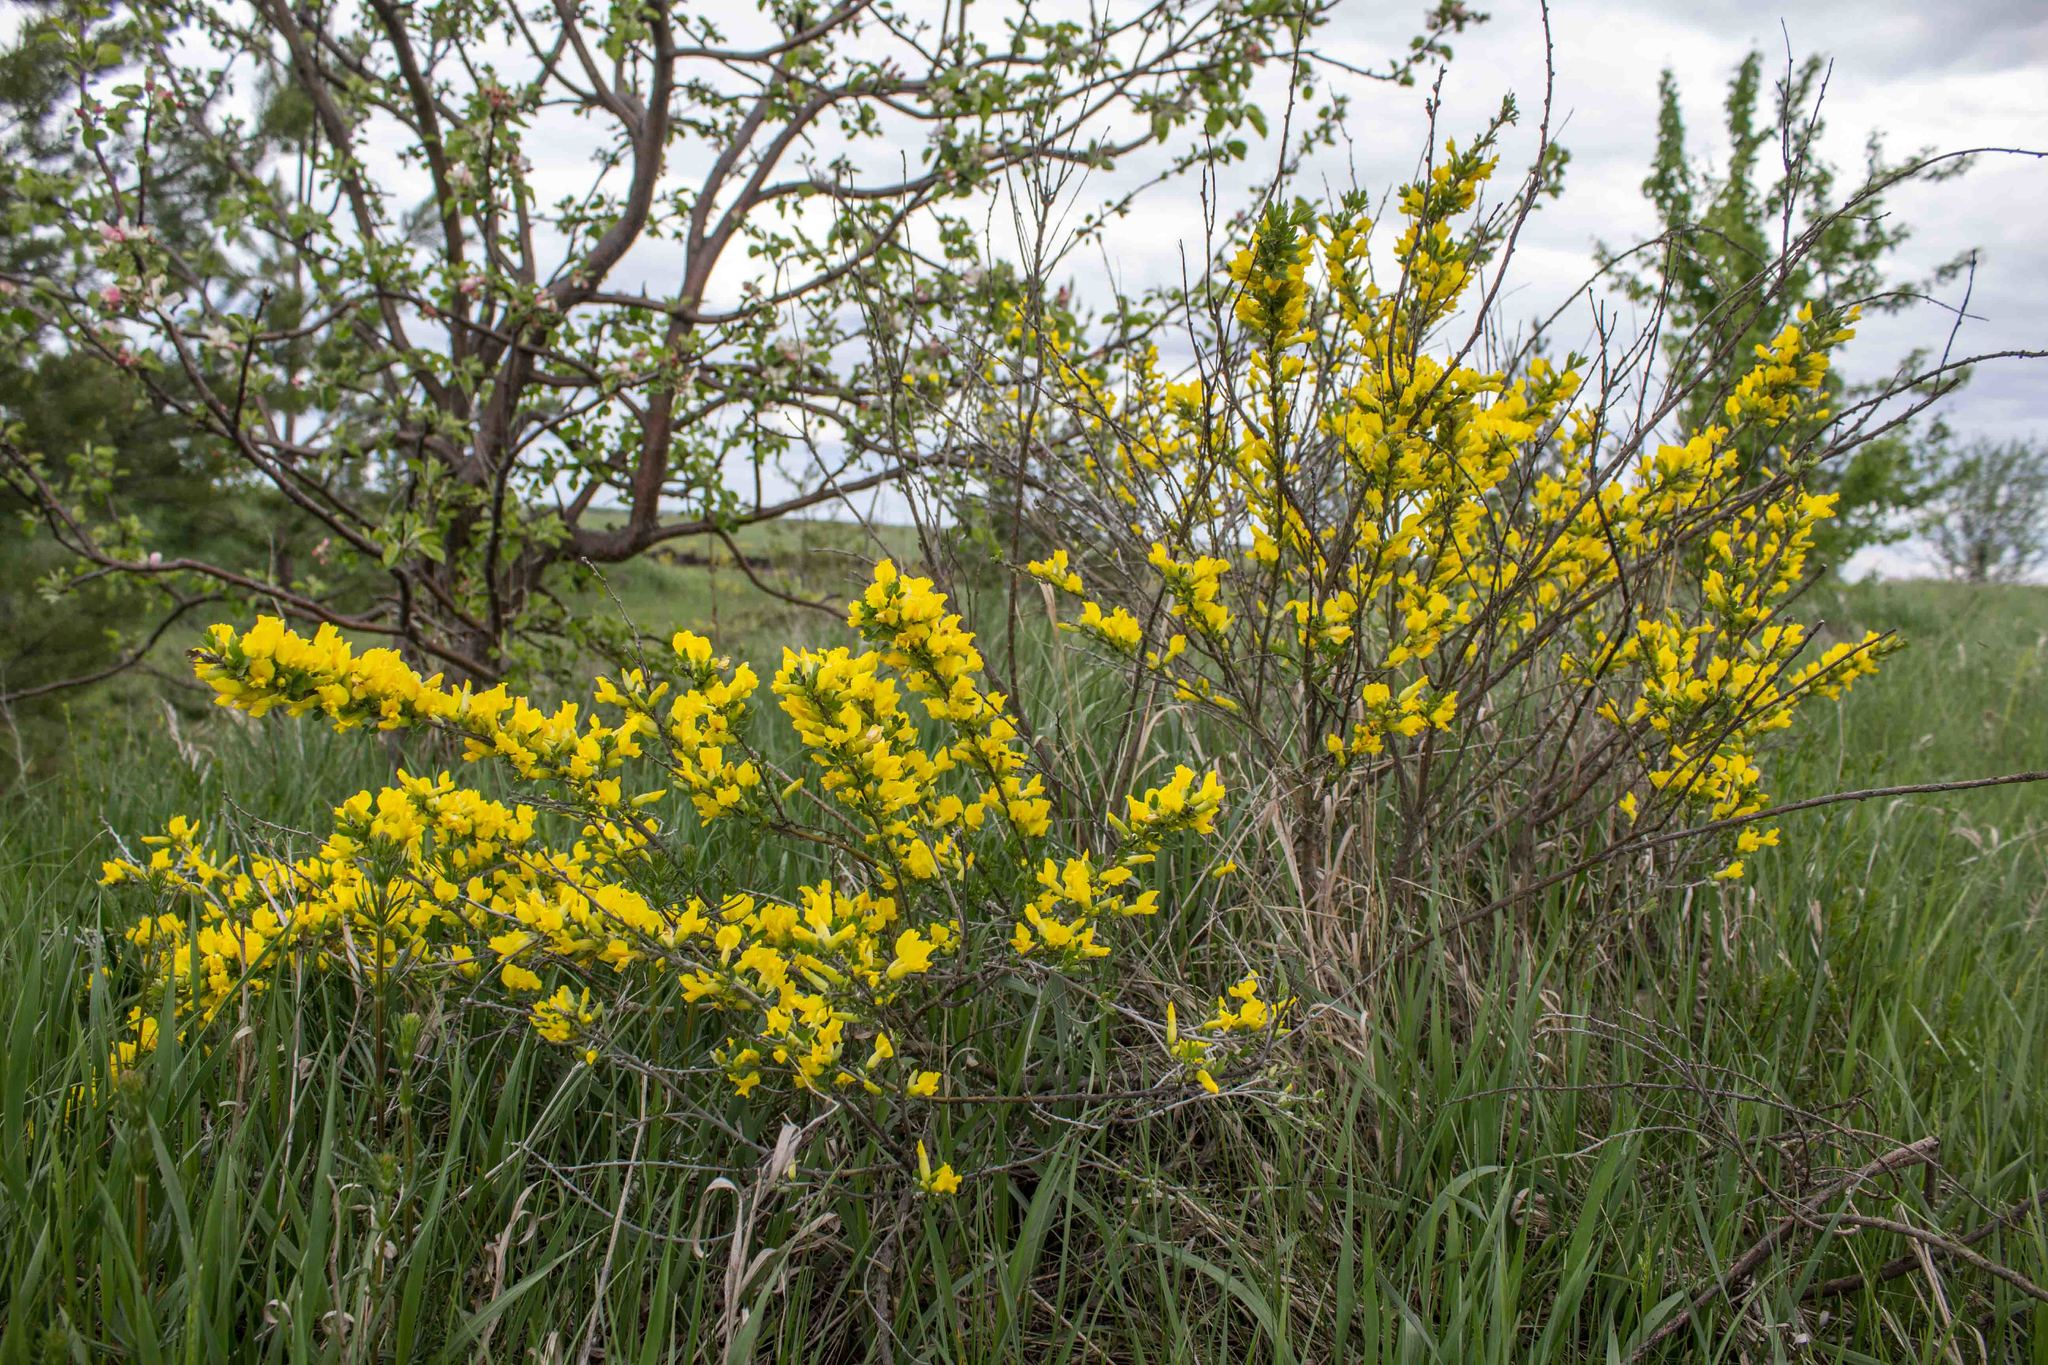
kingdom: Plantae
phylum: Tracheophyta
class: Magnoliopsida
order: Fabales
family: Fabaceae
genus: Chamaecytisus
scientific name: Chamaecytisus ruthenicus
